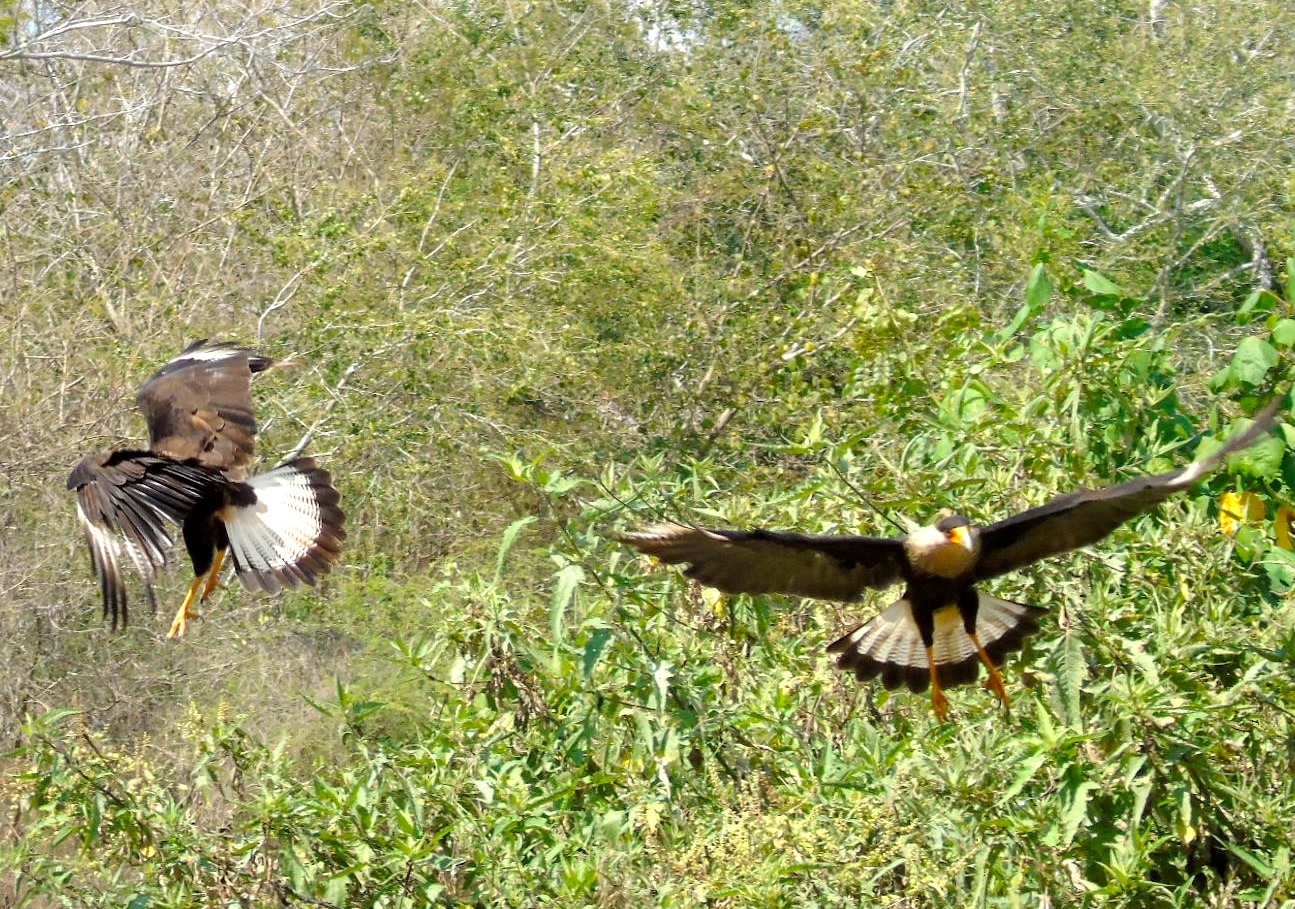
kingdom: Animalia
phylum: Chordata
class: Aves
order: Falconiformes
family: Falconidae
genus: Caracara
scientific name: Caracara plancus
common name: Southern caracara
